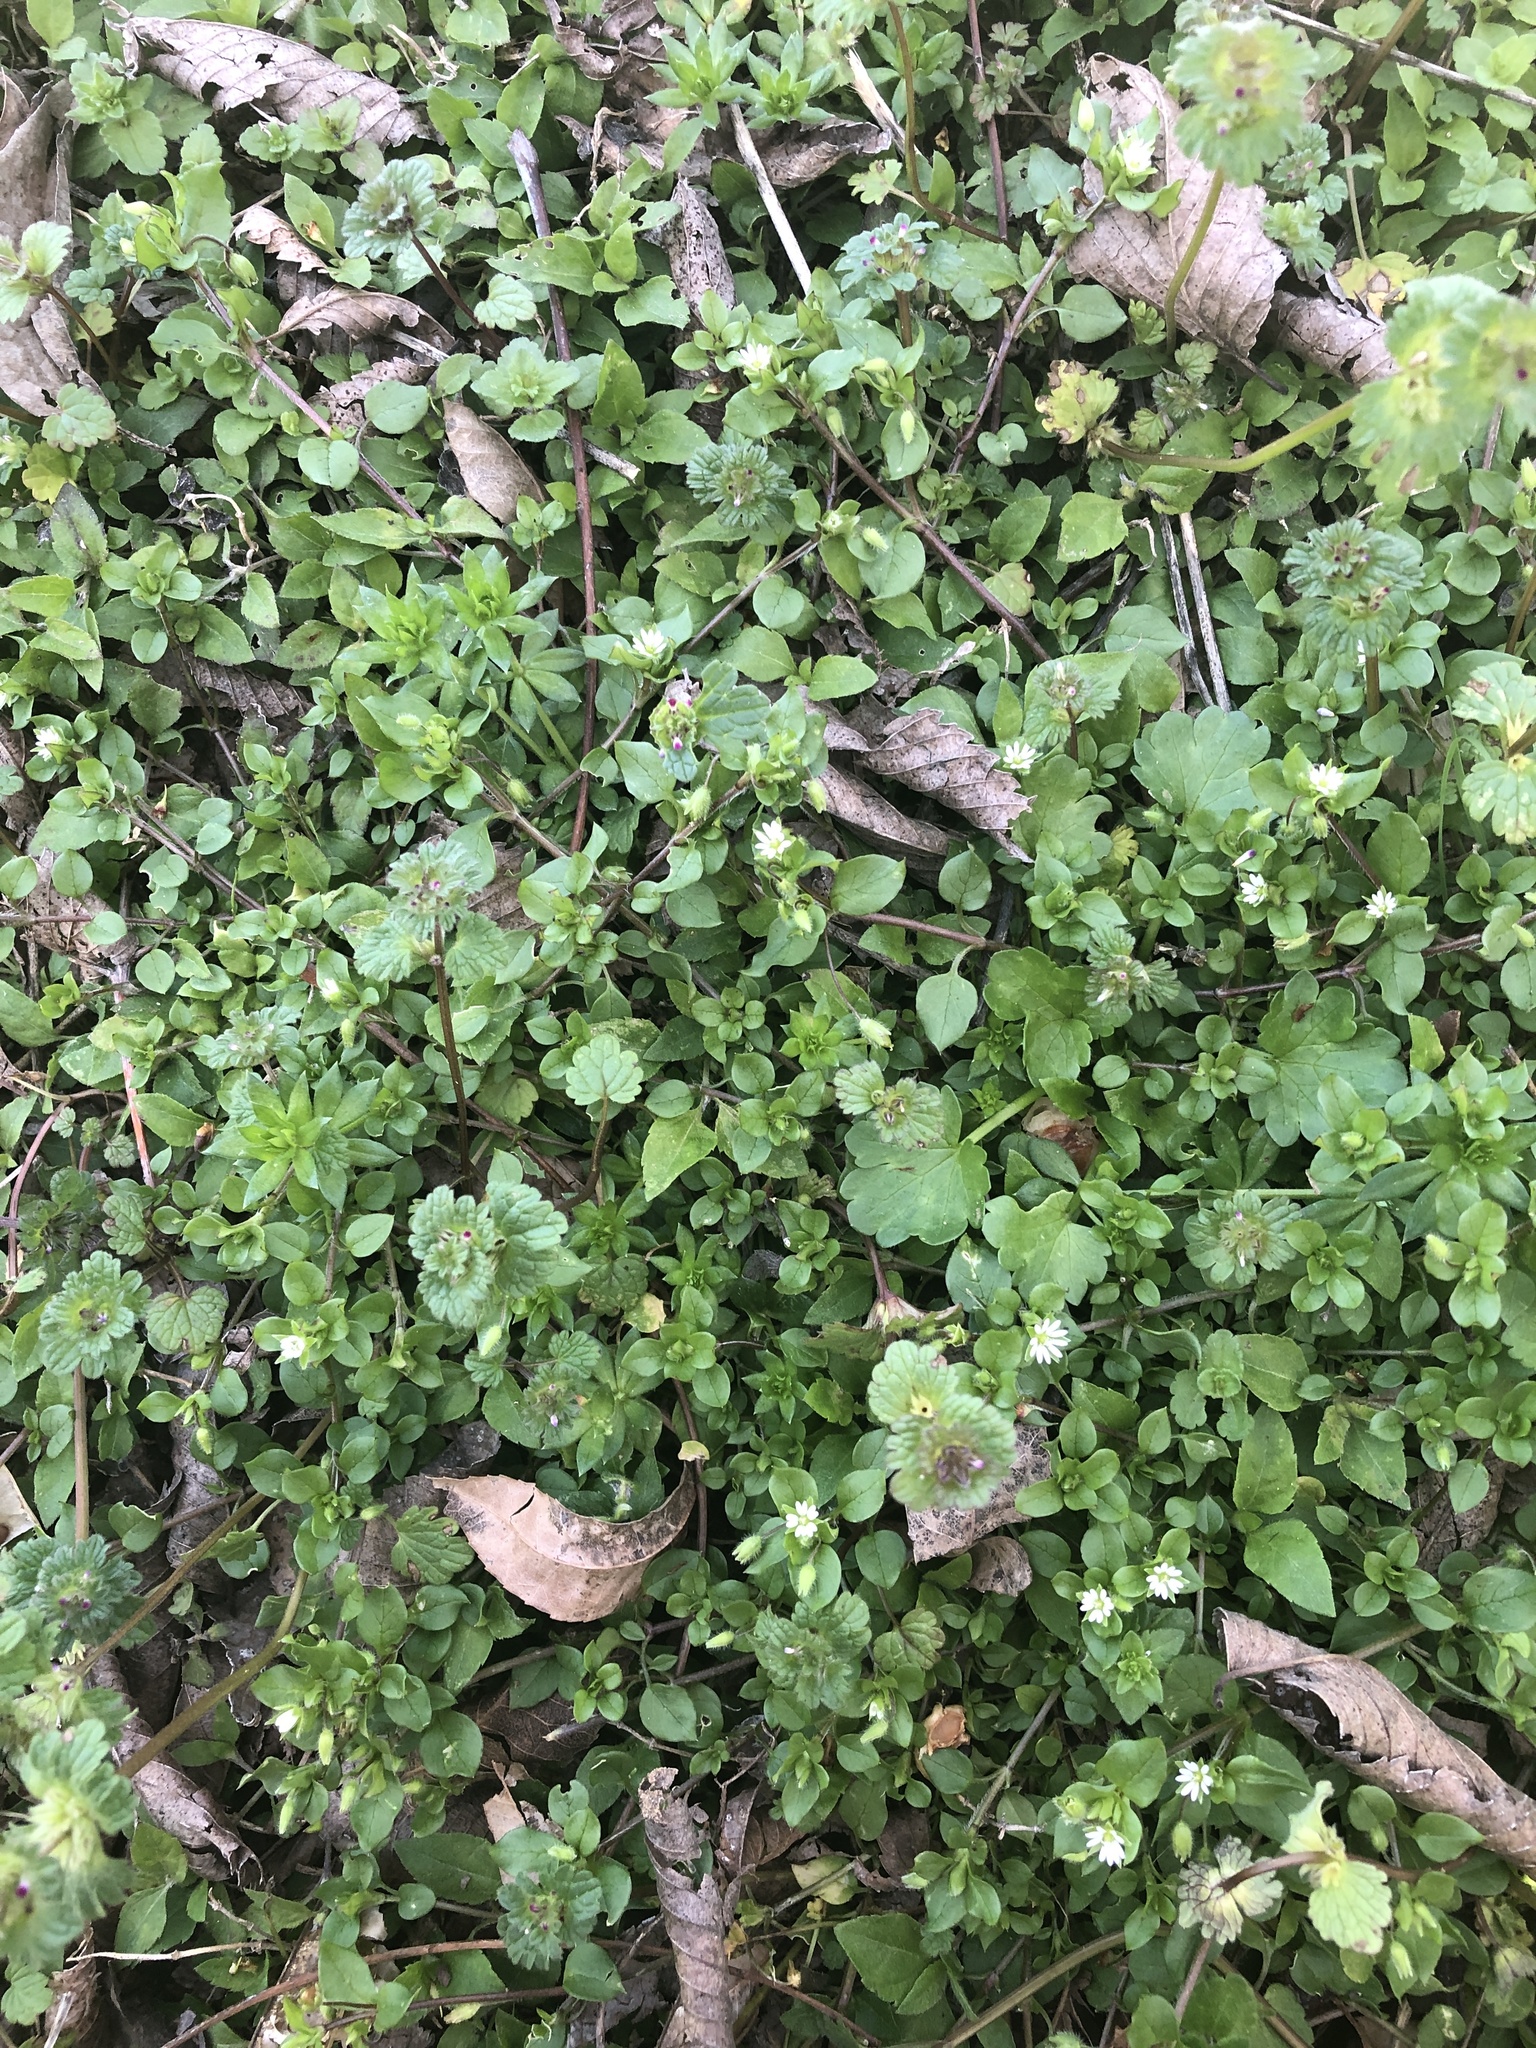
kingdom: Plantae
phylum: Tracheophyta
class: Magnoliopsida
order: Caryophyllales
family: Caryophyllaceae
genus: Stellaria
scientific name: Stellaria media
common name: Common chickweed
